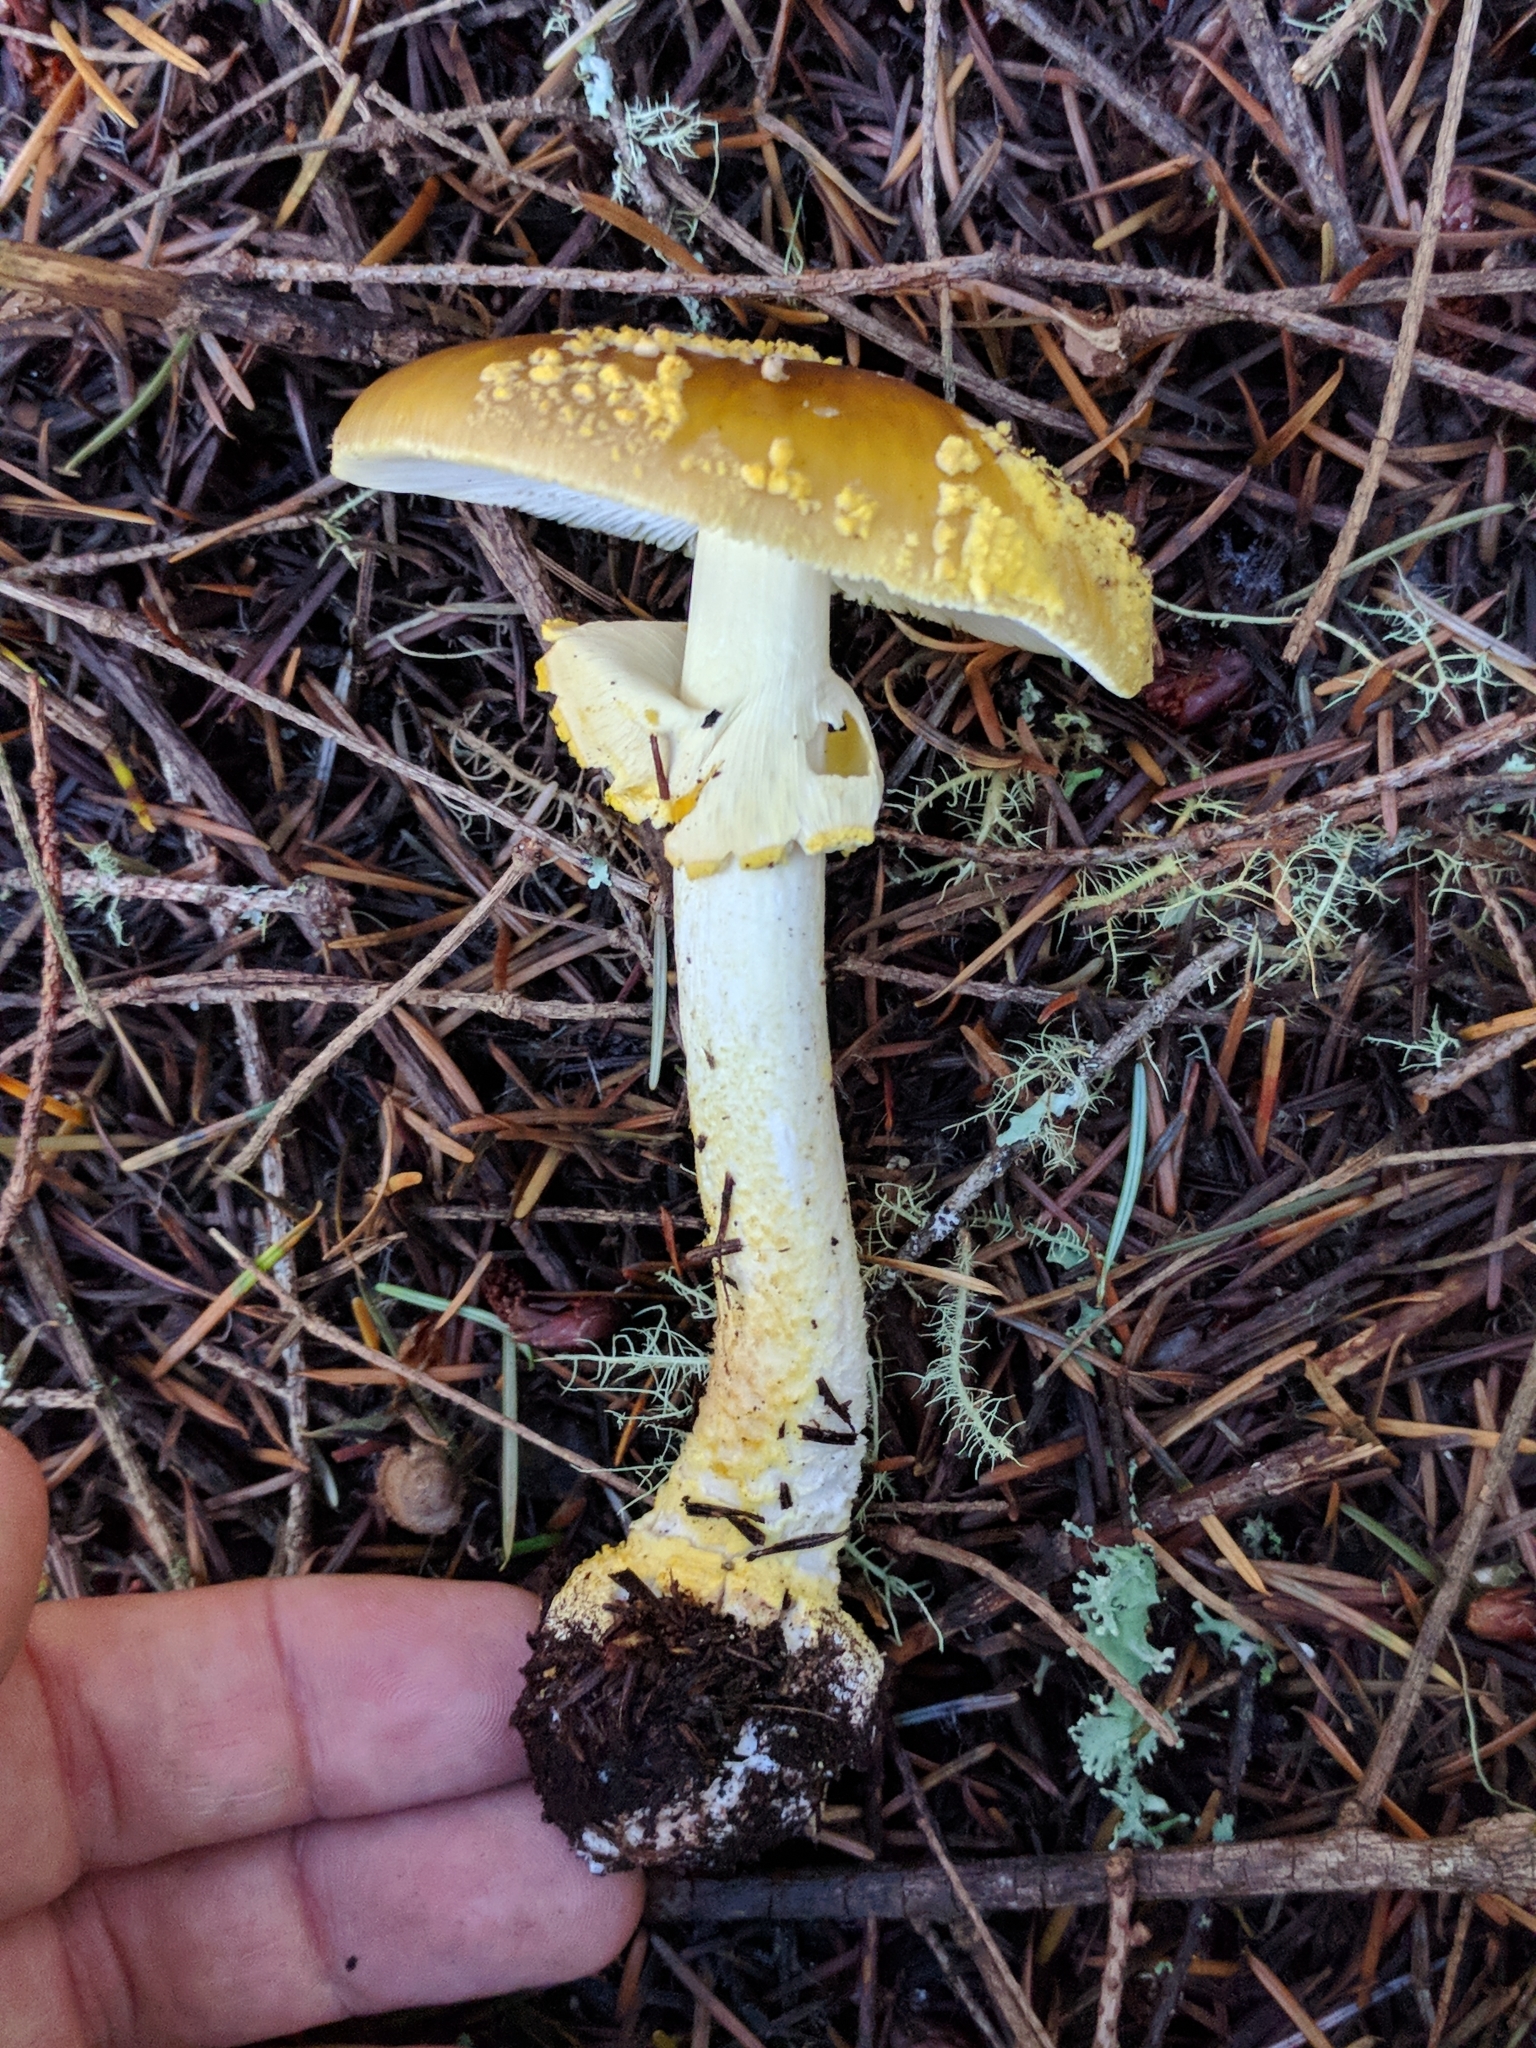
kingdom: Fungi
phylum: Basidiomycota
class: Agaricomycetes
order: Agaricales
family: Amanitaceae
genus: Amanita
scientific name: Amanita augusta
